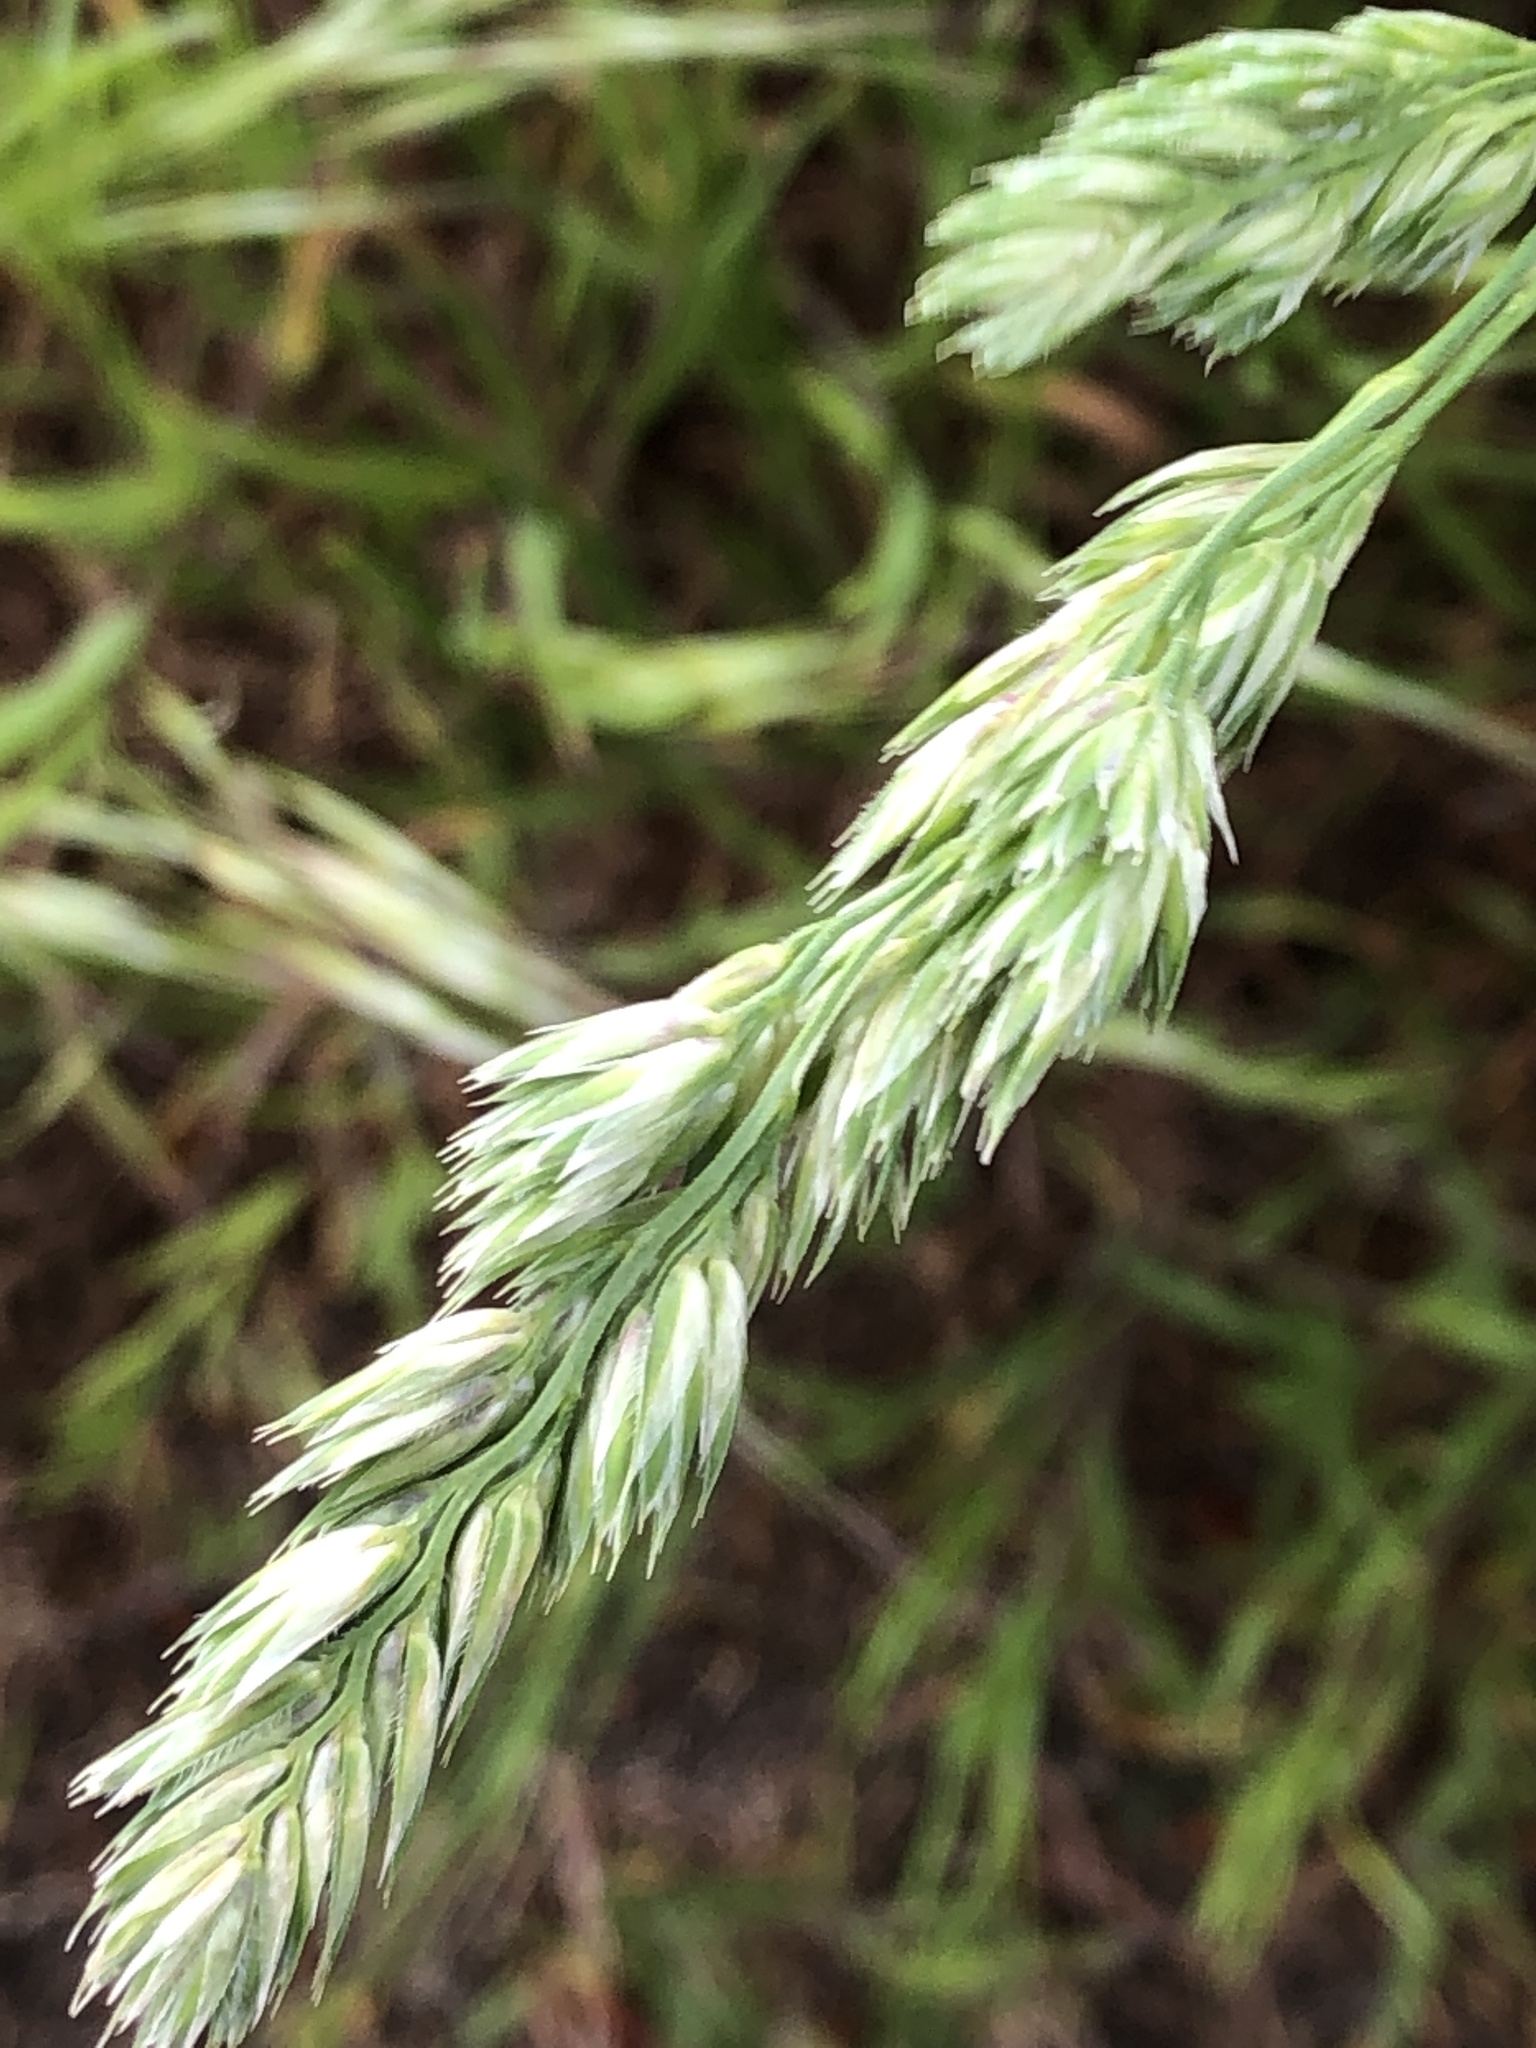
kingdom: Plantae
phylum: Tracheophyta
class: Liliopsida
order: Poales
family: Poaceae
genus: Dactylis
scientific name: Dactylis glomerata
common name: Orchardgrass
